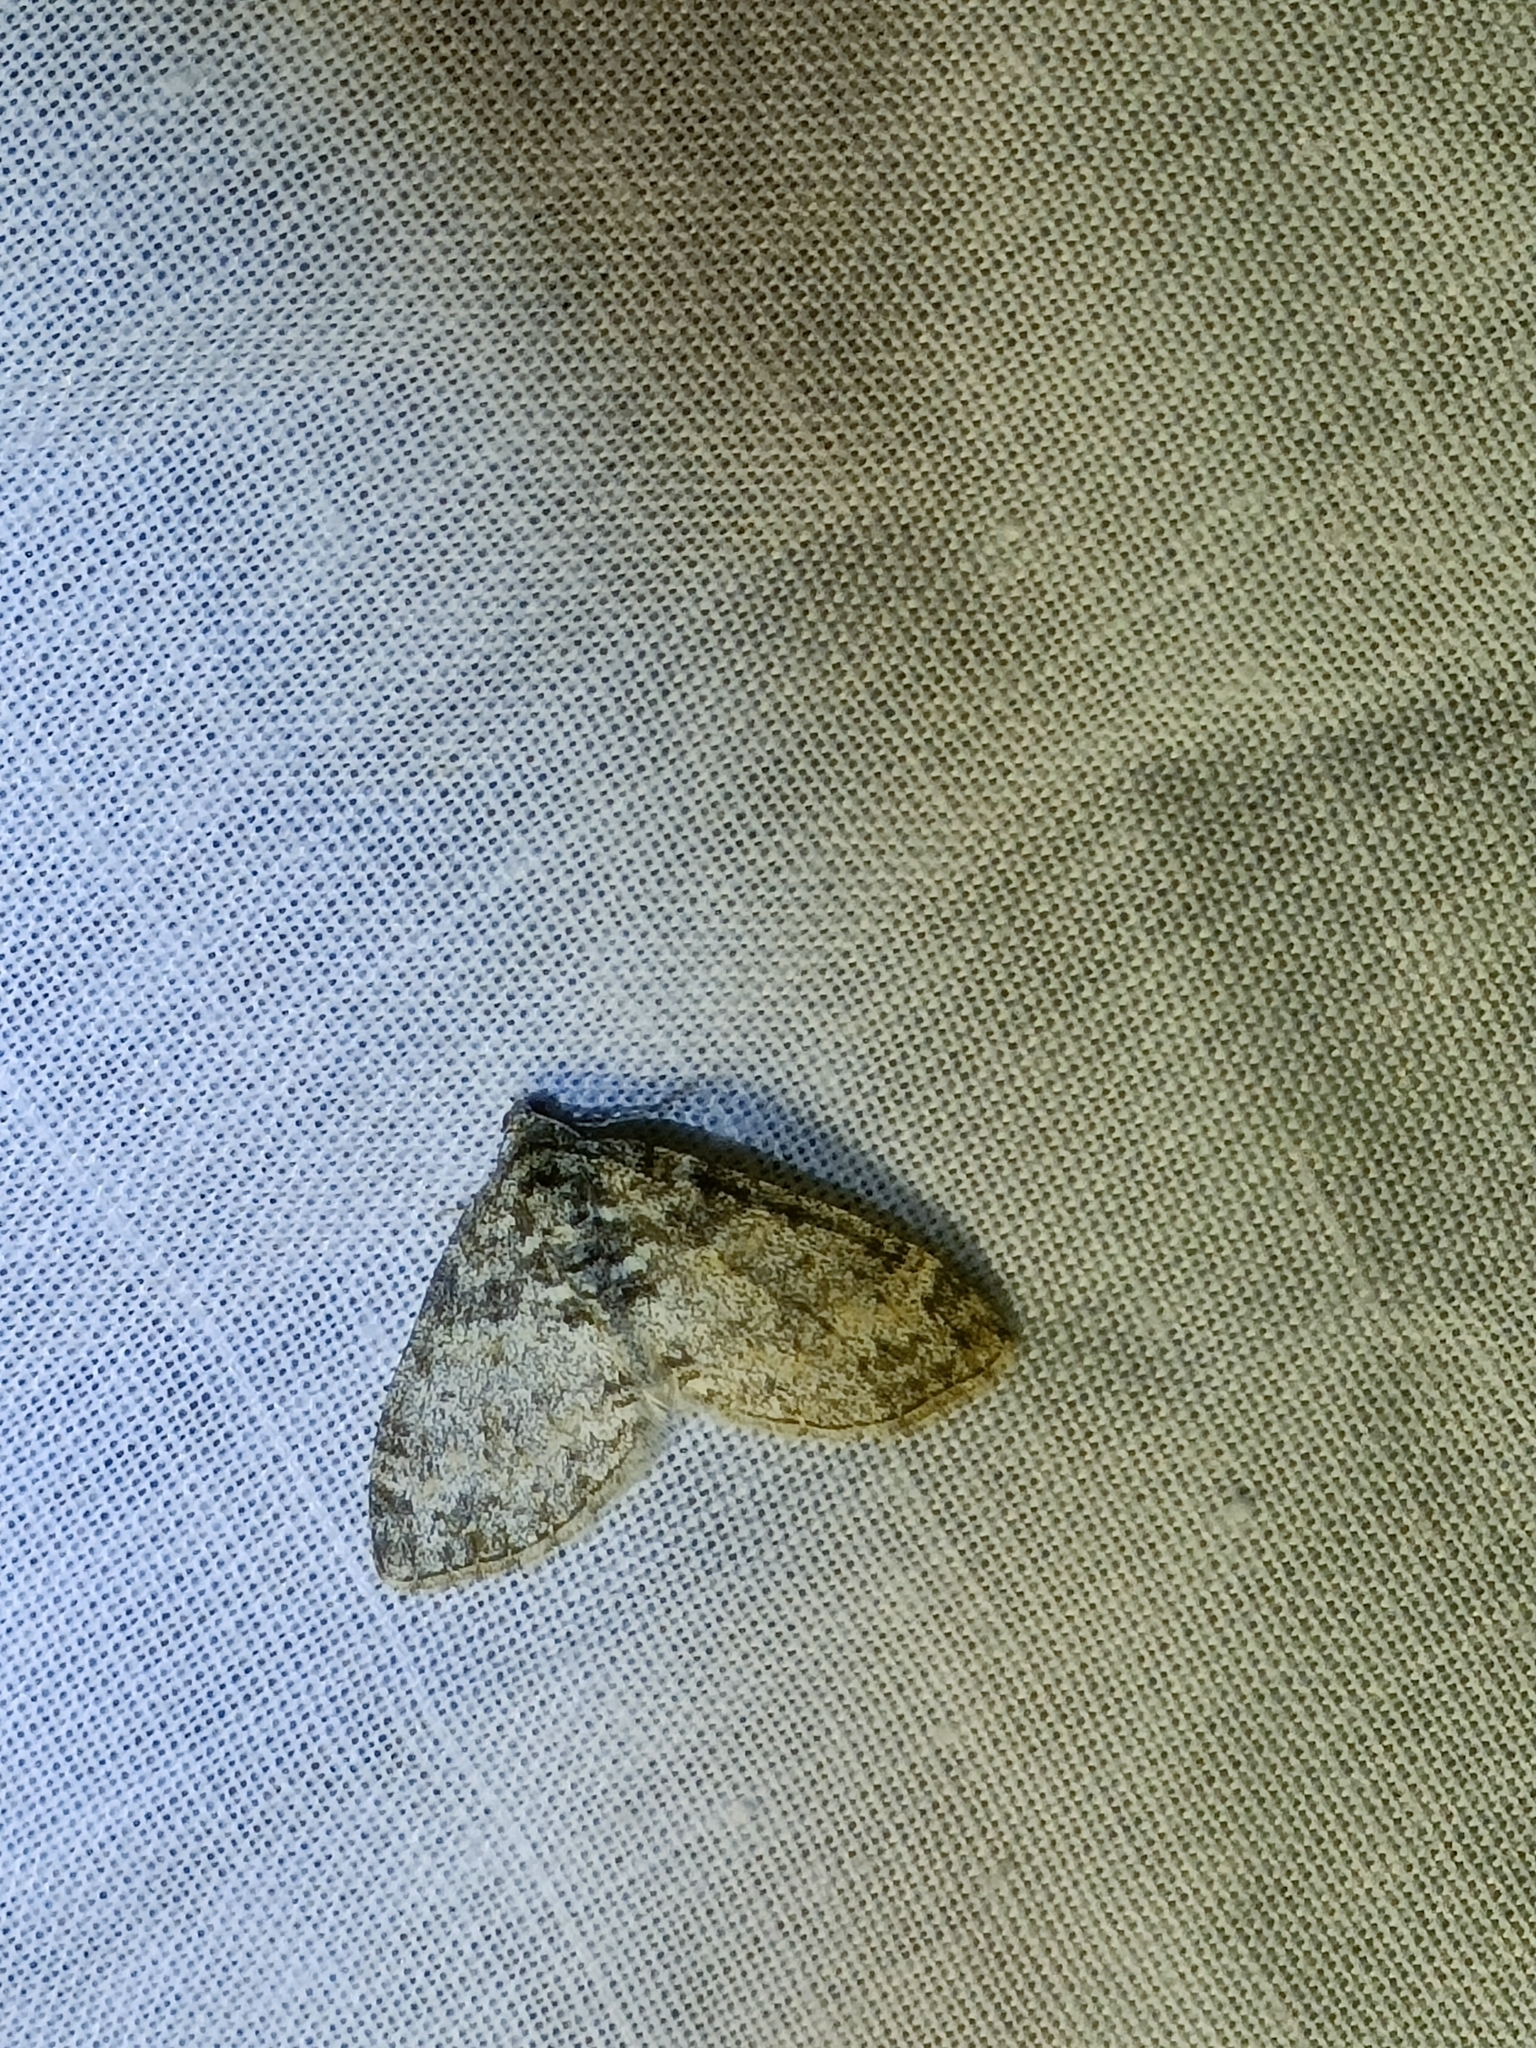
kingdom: Animalia
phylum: Arthropoda
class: Insecta
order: Lepidoptera
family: Geometridae
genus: Lobophora
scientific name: Lobophora halterata
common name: Seraphim
